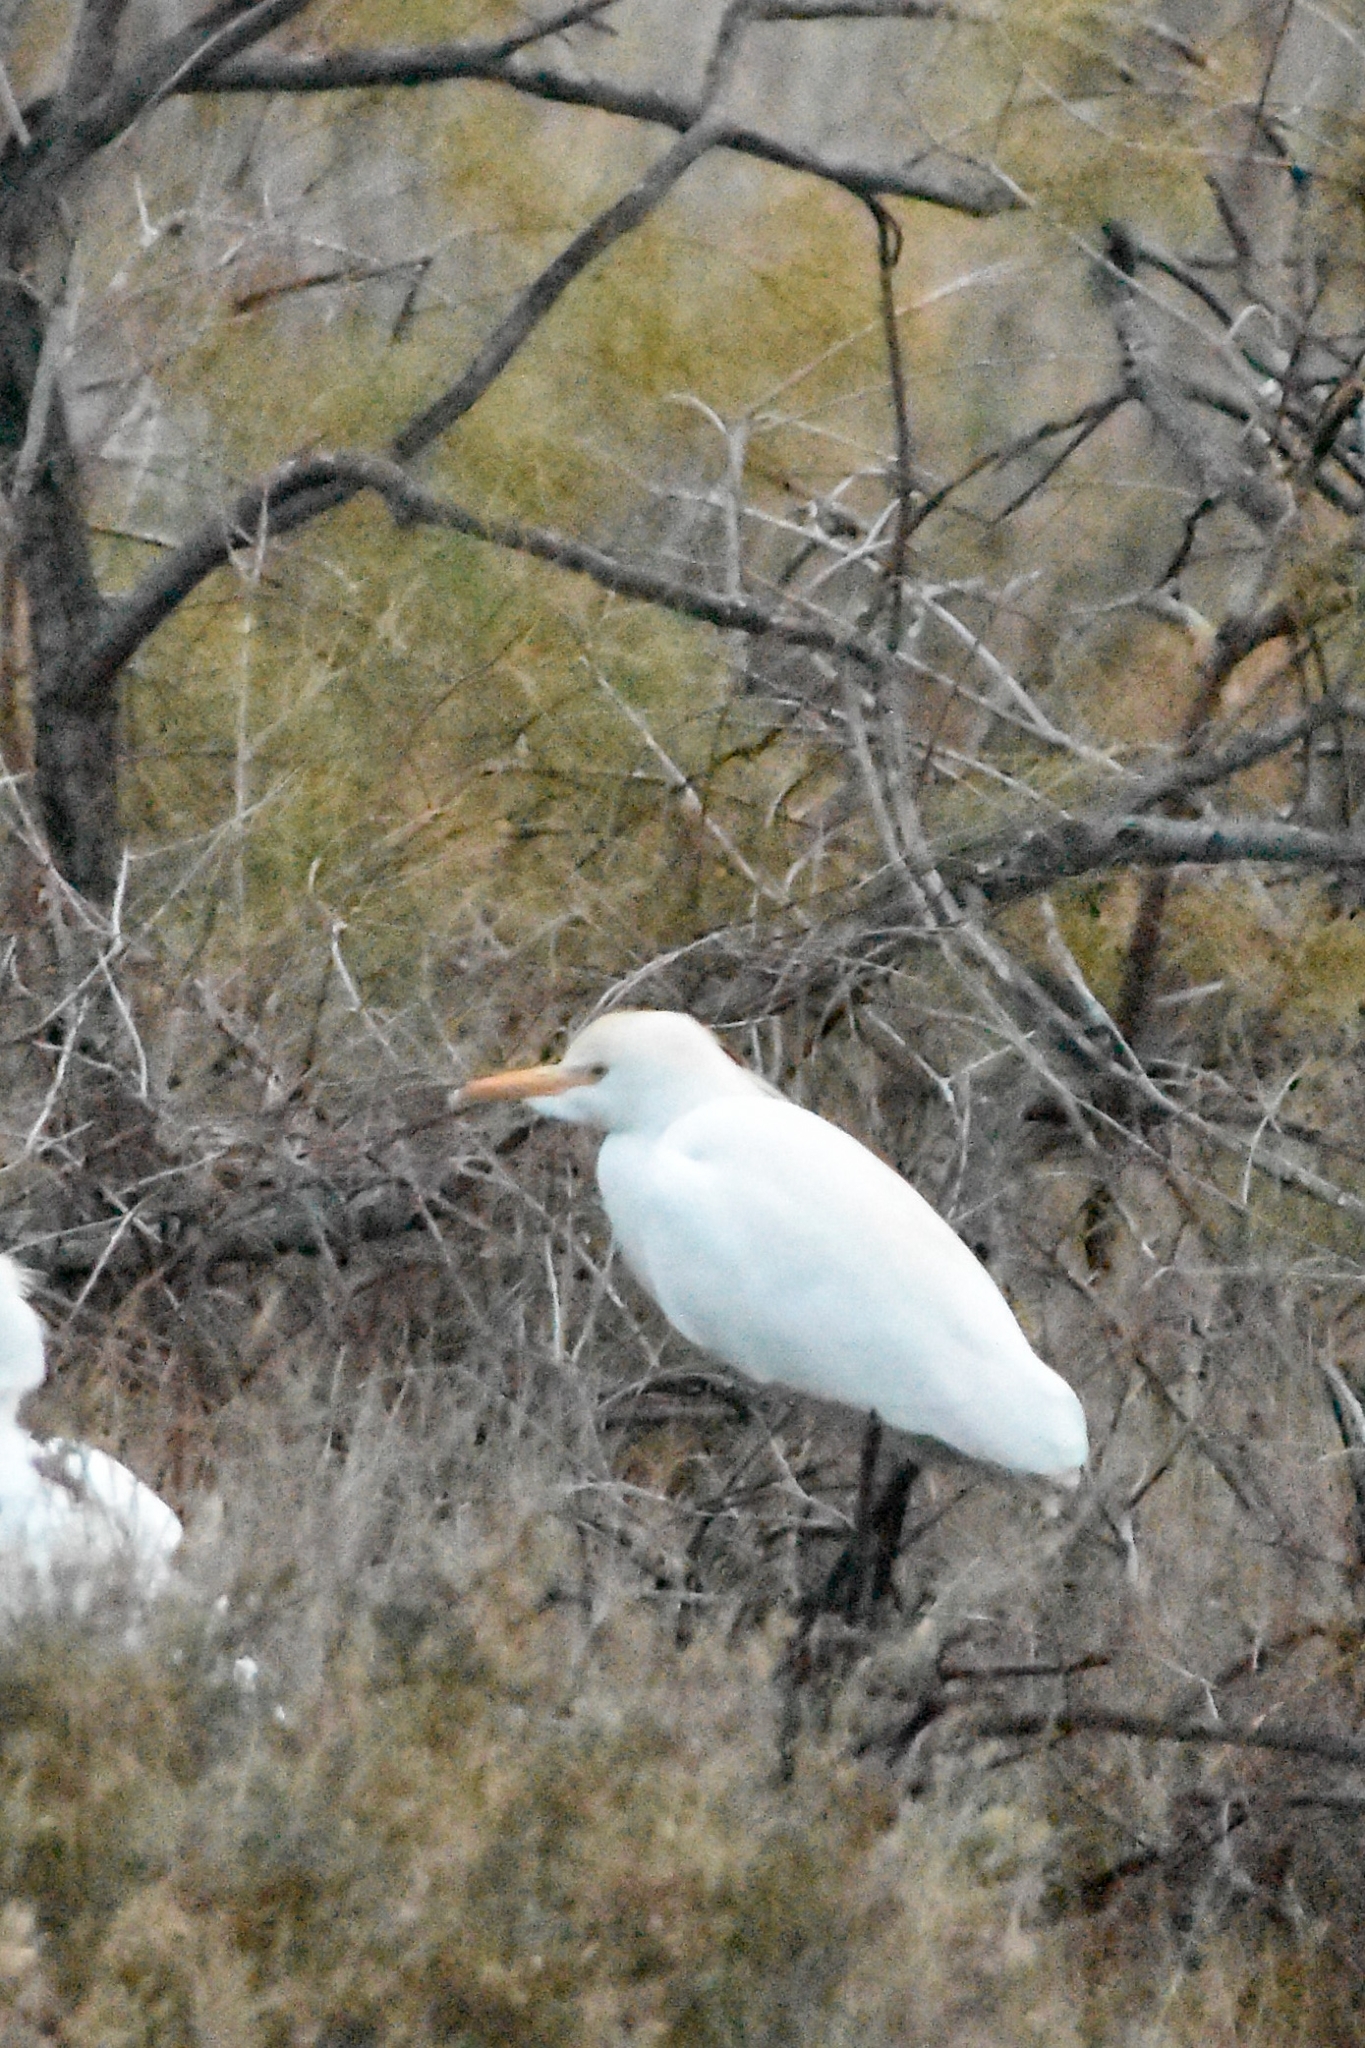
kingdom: Animalia
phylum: Chordata
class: Aves
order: Pelecaniformes
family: Ardeidae
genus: Bubulcus
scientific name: Bubulcus ibis
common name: Cattle egret
